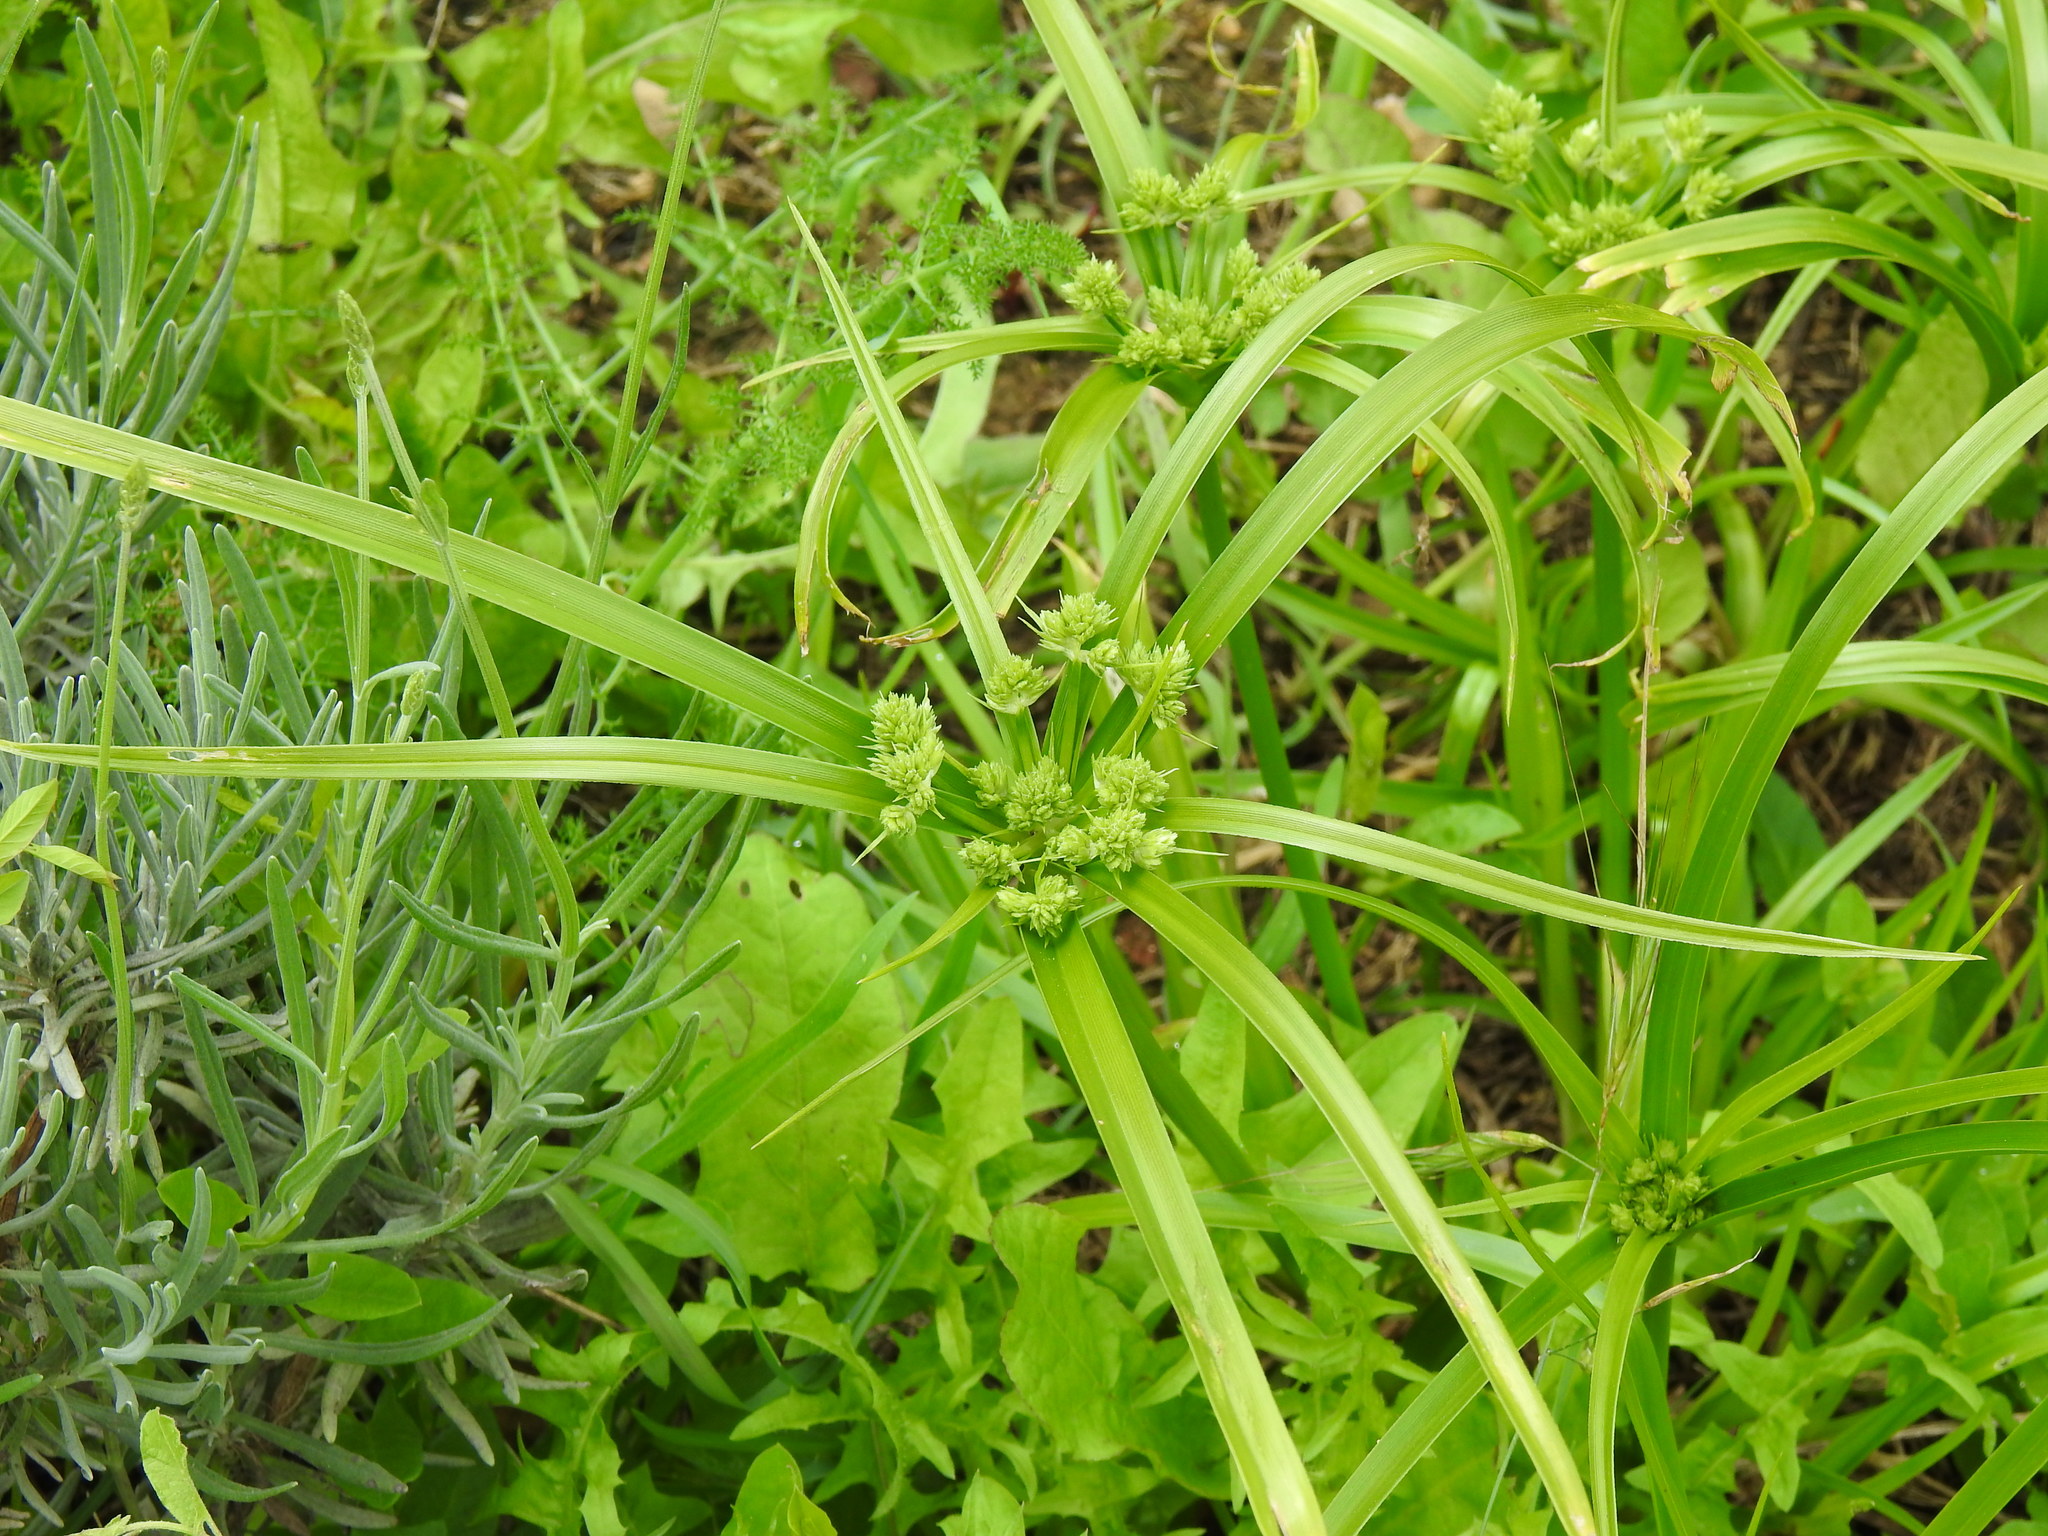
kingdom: Plantae
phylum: Tracheophyta
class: Liliopsida
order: Poales
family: Cyperaceae
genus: Cyperus
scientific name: Cyperus eragrostis
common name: Tall flatsedge
